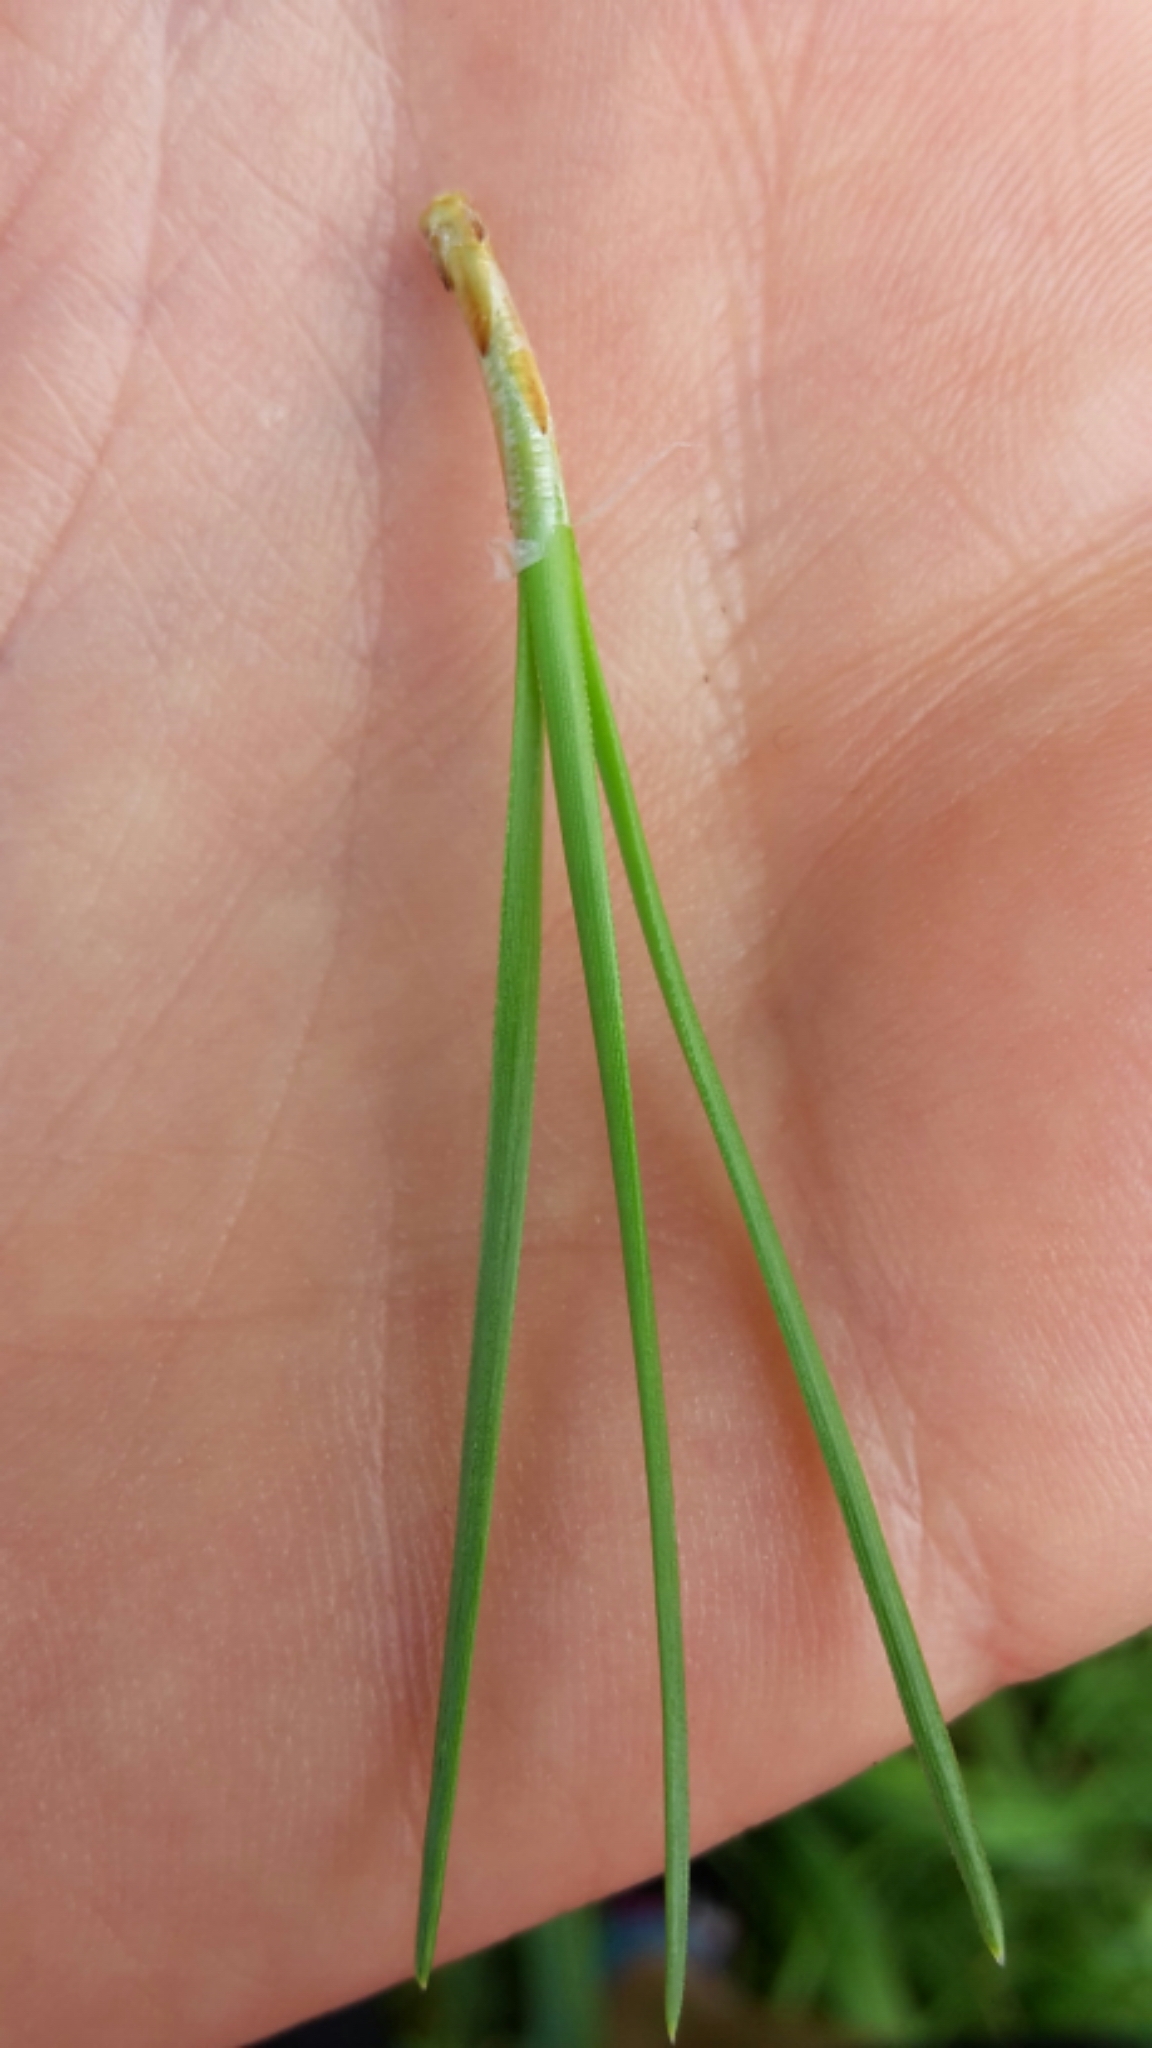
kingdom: Plantae
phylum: Tracheophyta
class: Pinopsida
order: Pinales
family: Pinaceae
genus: Pinus
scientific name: Pinus radiata
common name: Monterey pine
